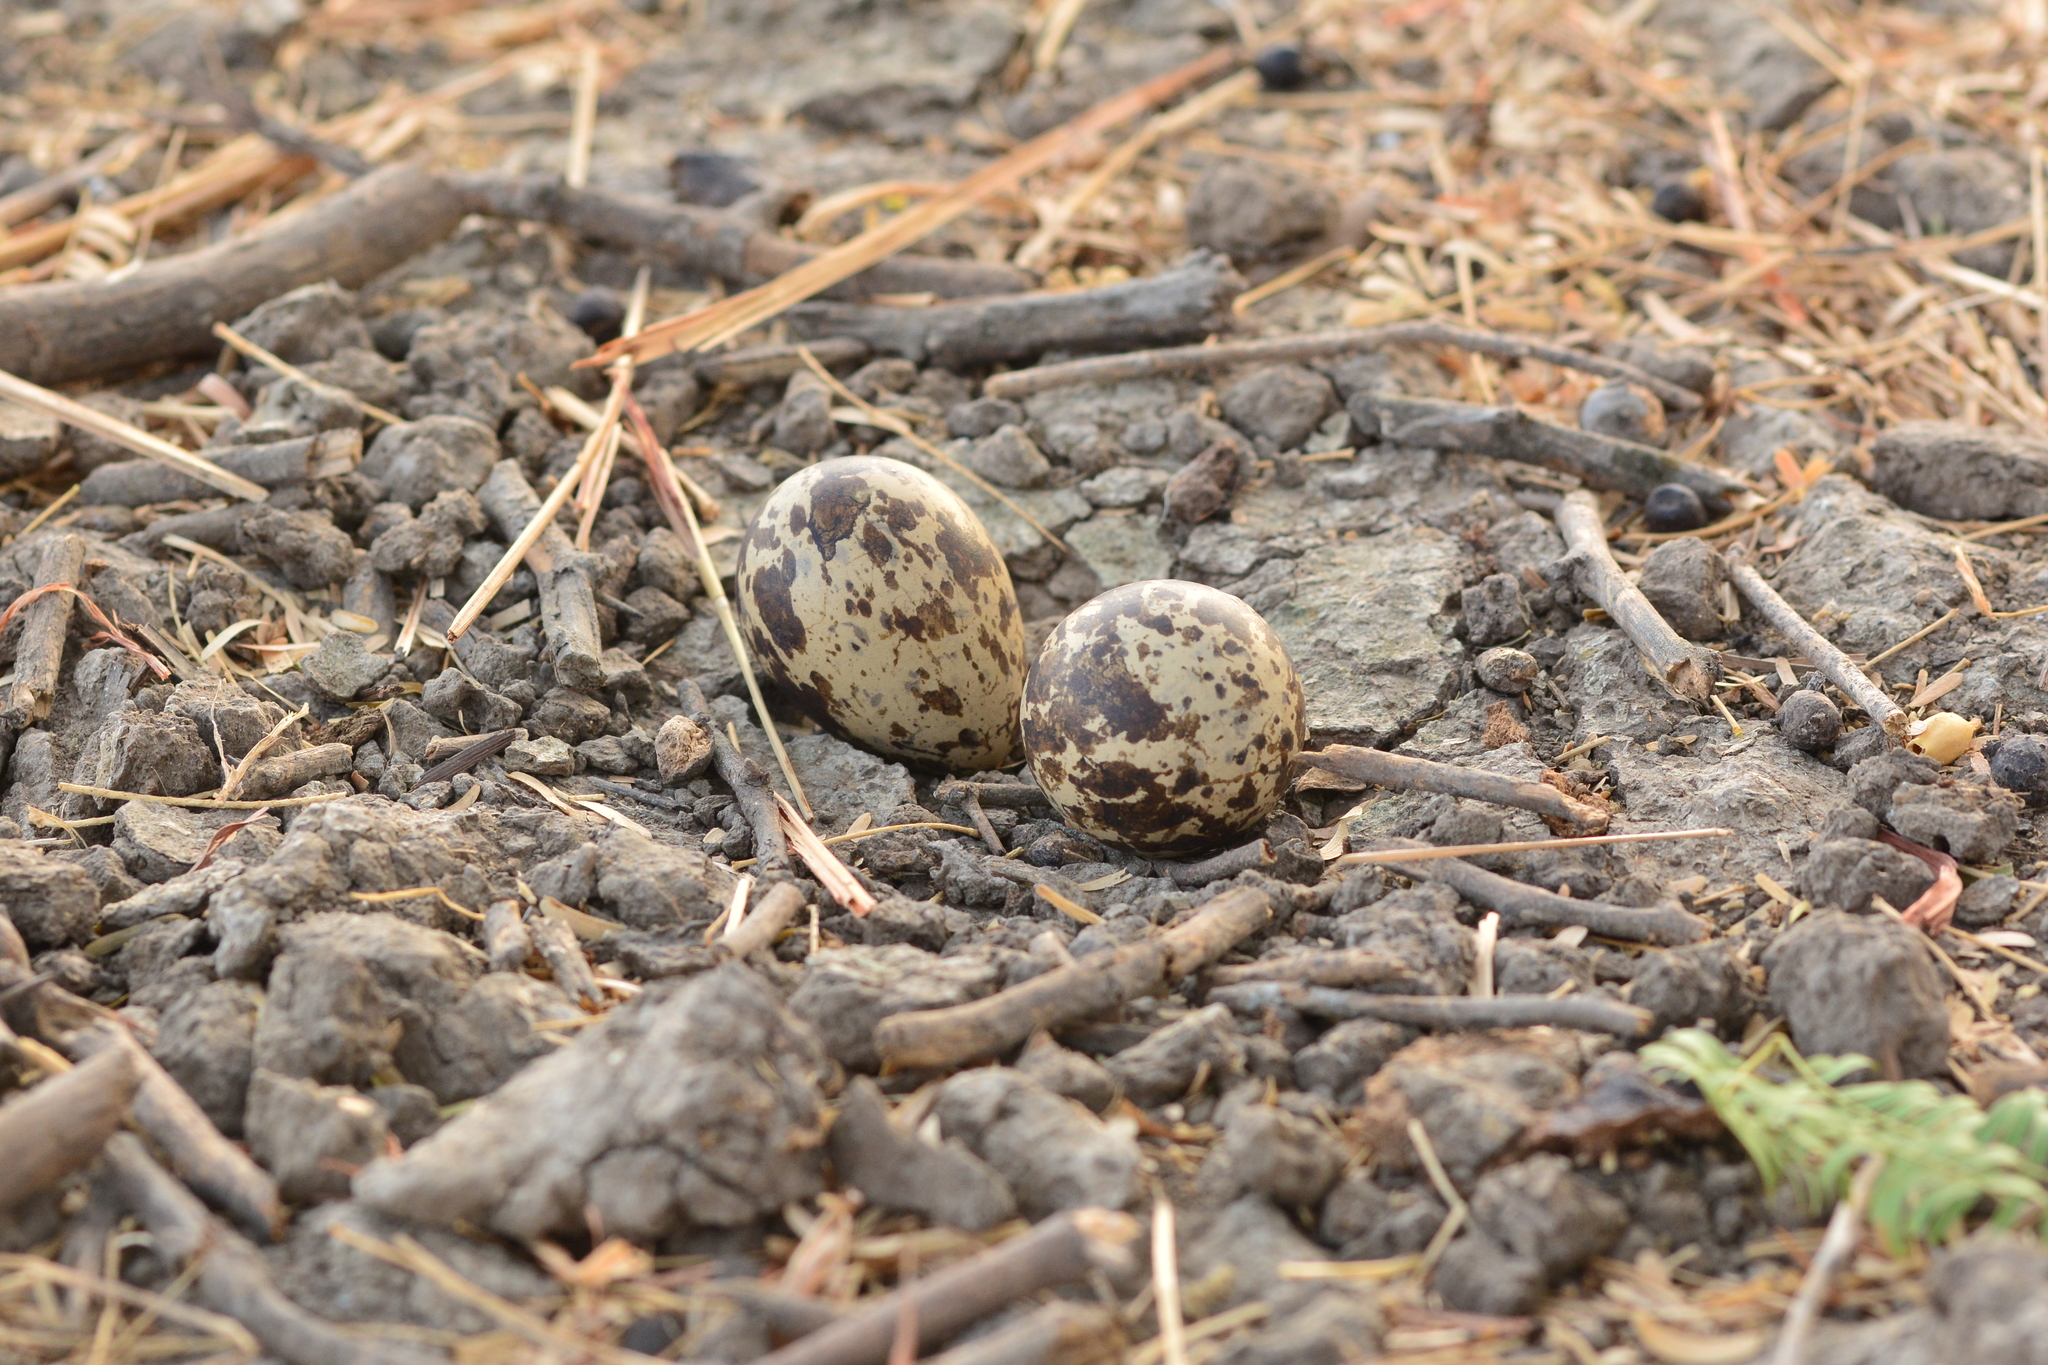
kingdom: Animalia
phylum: Chordata
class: Aves
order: Charadriiformes
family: Burhinidae
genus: Burhinus
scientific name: Burhinus indicus
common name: Indian thick-knee
